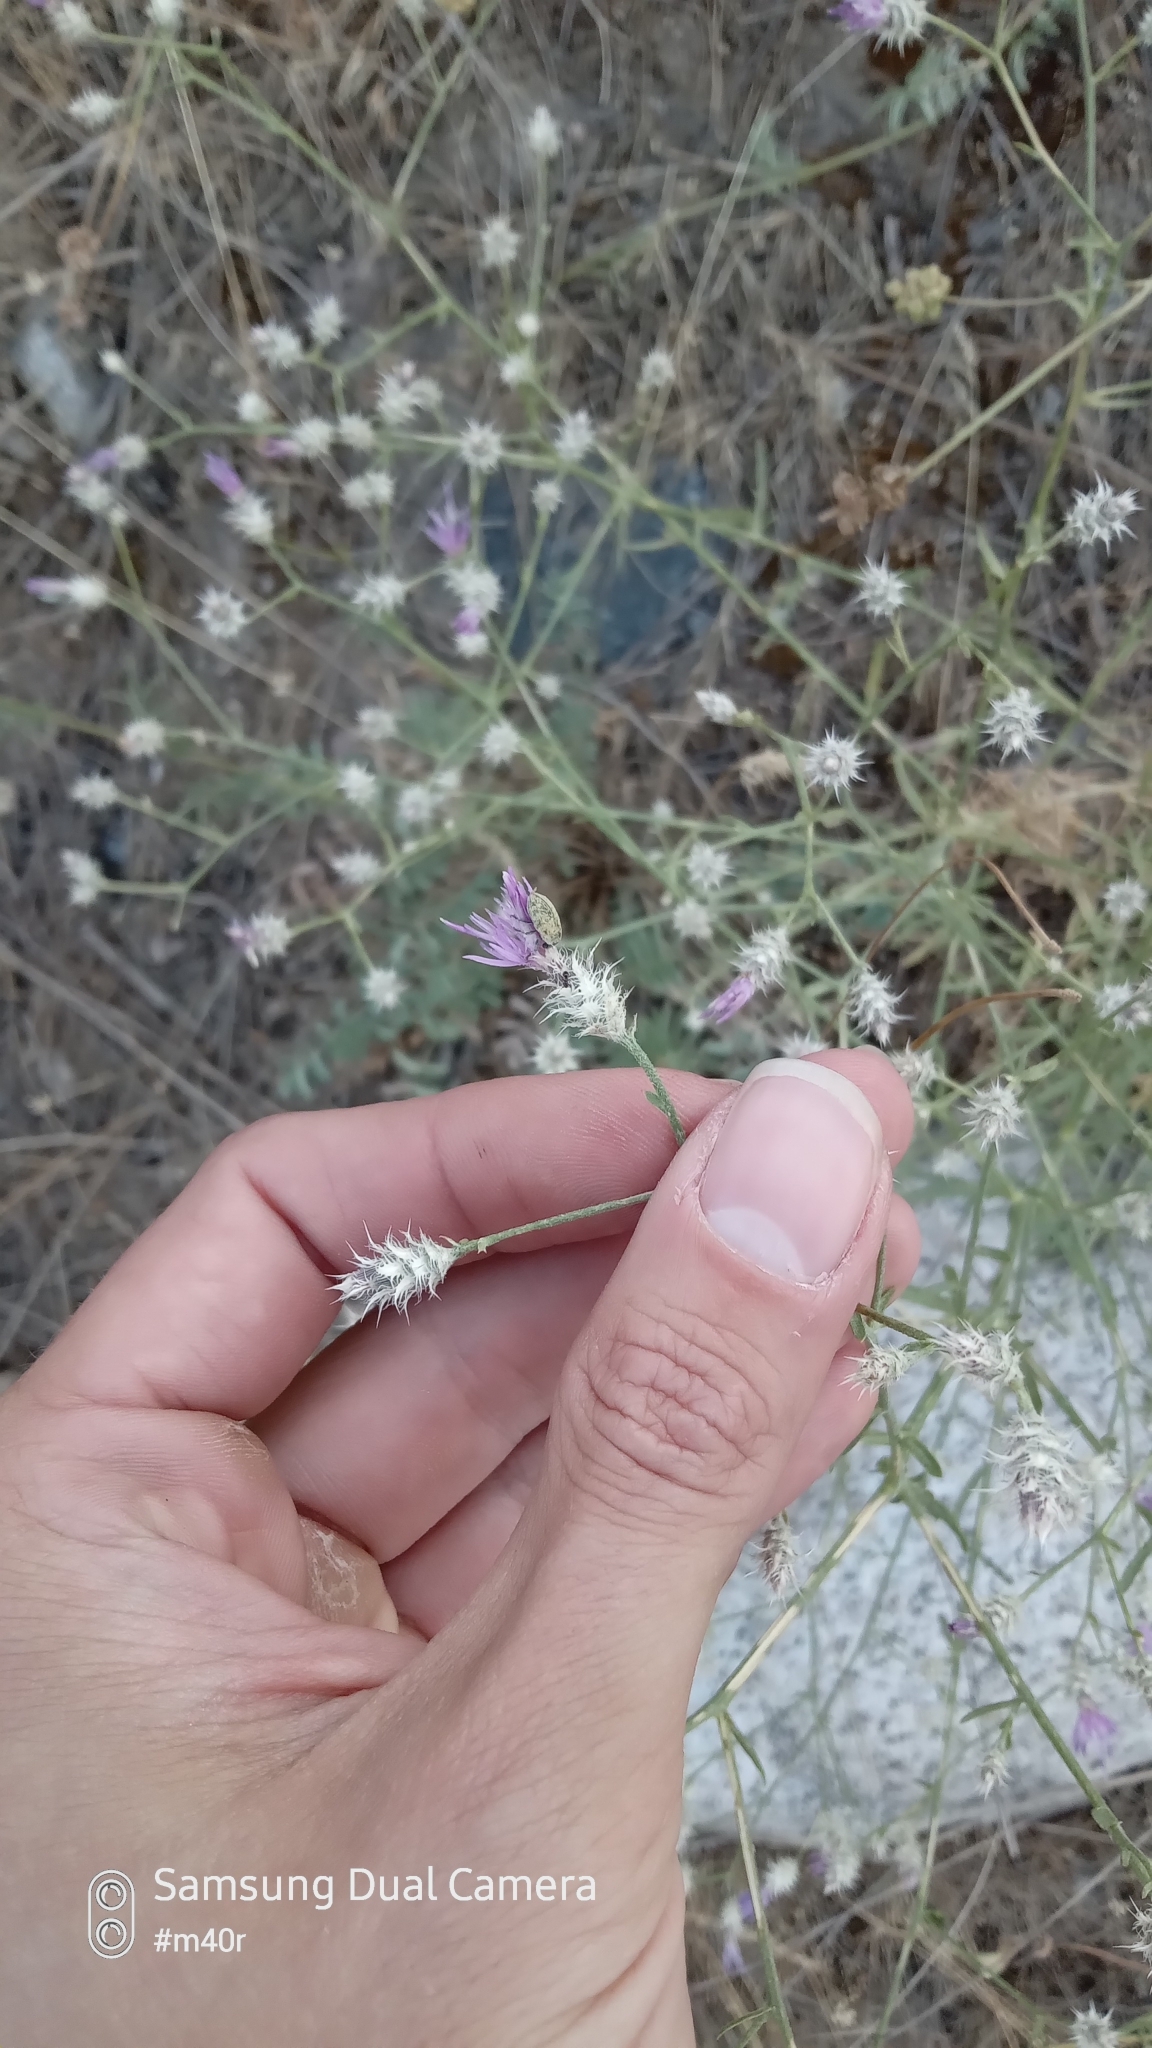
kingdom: Plantae
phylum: Tracheophyta
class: Magnoliopsida
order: Asterales
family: Asteraceae
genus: Centaurea
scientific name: Centaurea virgata
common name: Squarrose knapweed
